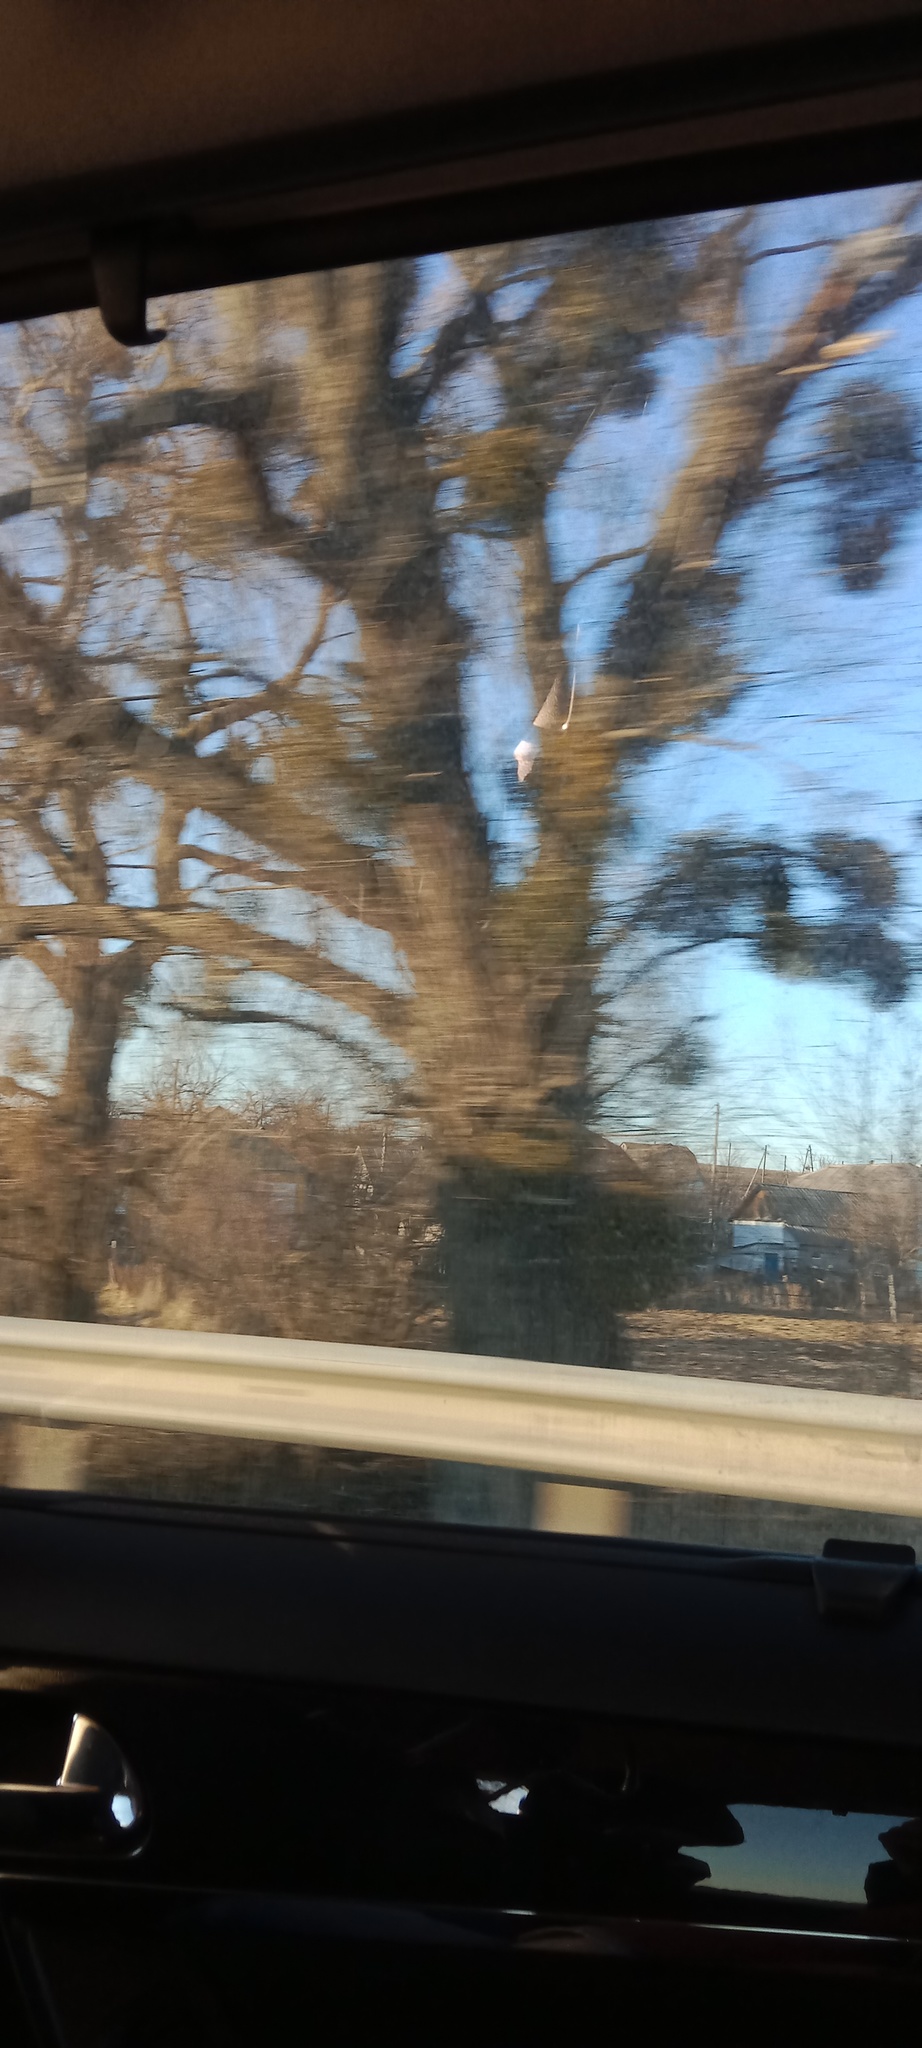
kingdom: Plantae
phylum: Tracheophyta
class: Magnoliopsida
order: Santalales
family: Viscaceae
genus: Viscum
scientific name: Viscum album
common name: Mistletoe
